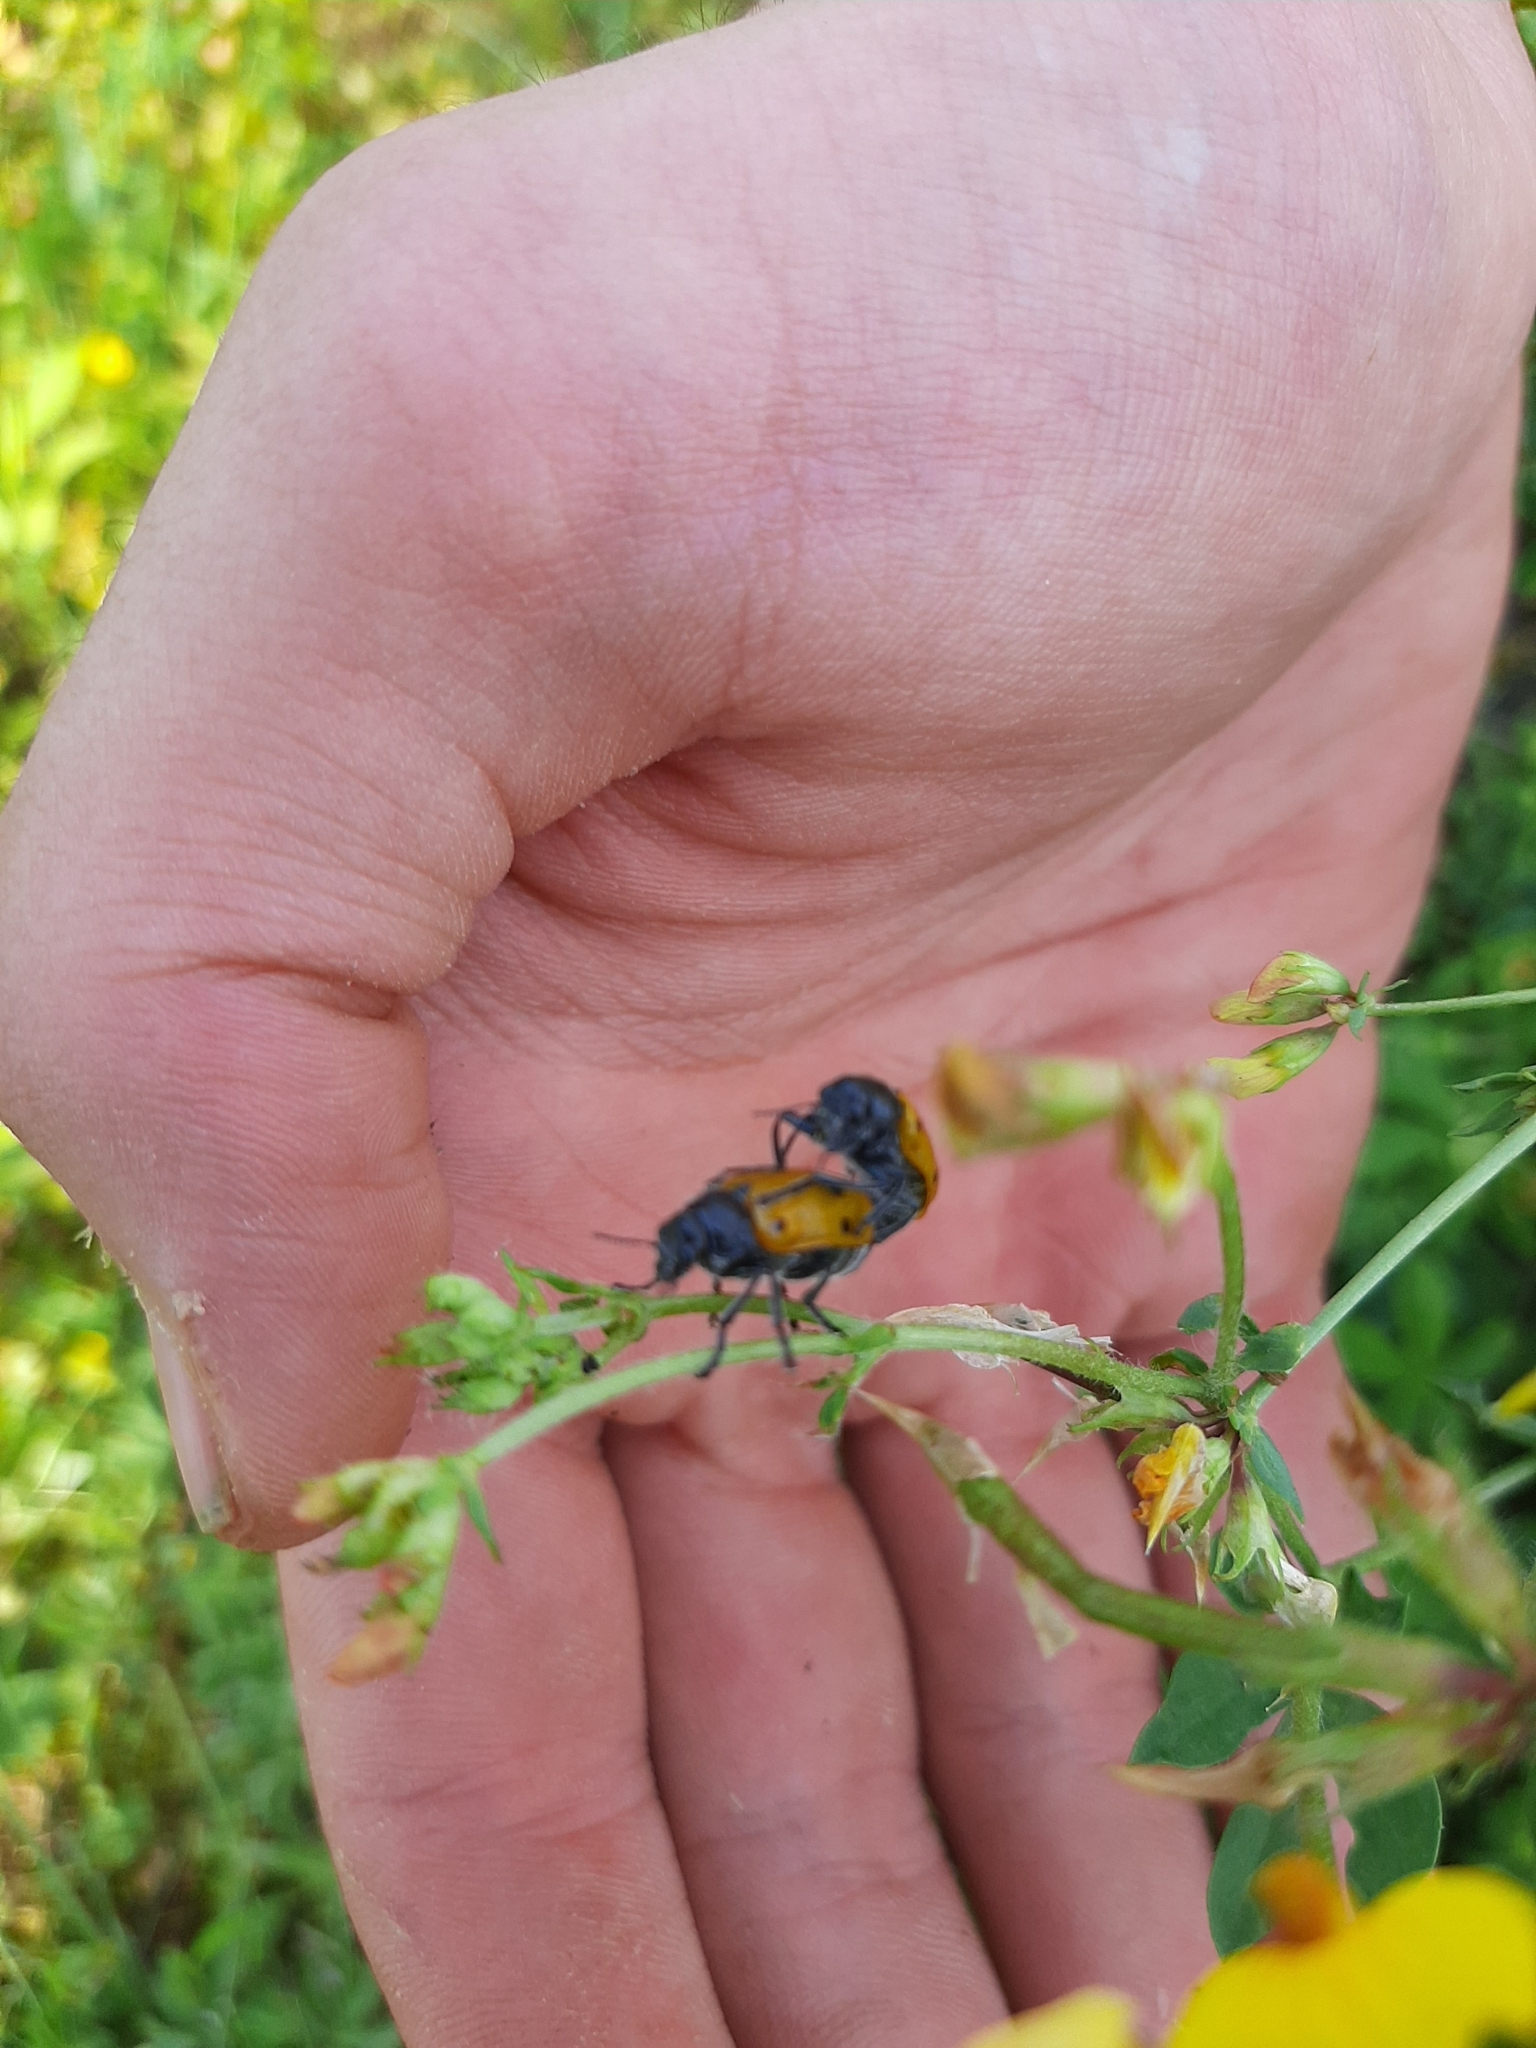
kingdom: Animalia
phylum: Arthropoda
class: Insecta
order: Coleoptera
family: Chrysomelidae
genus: Lachnaia
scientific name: Lachnaia italica
